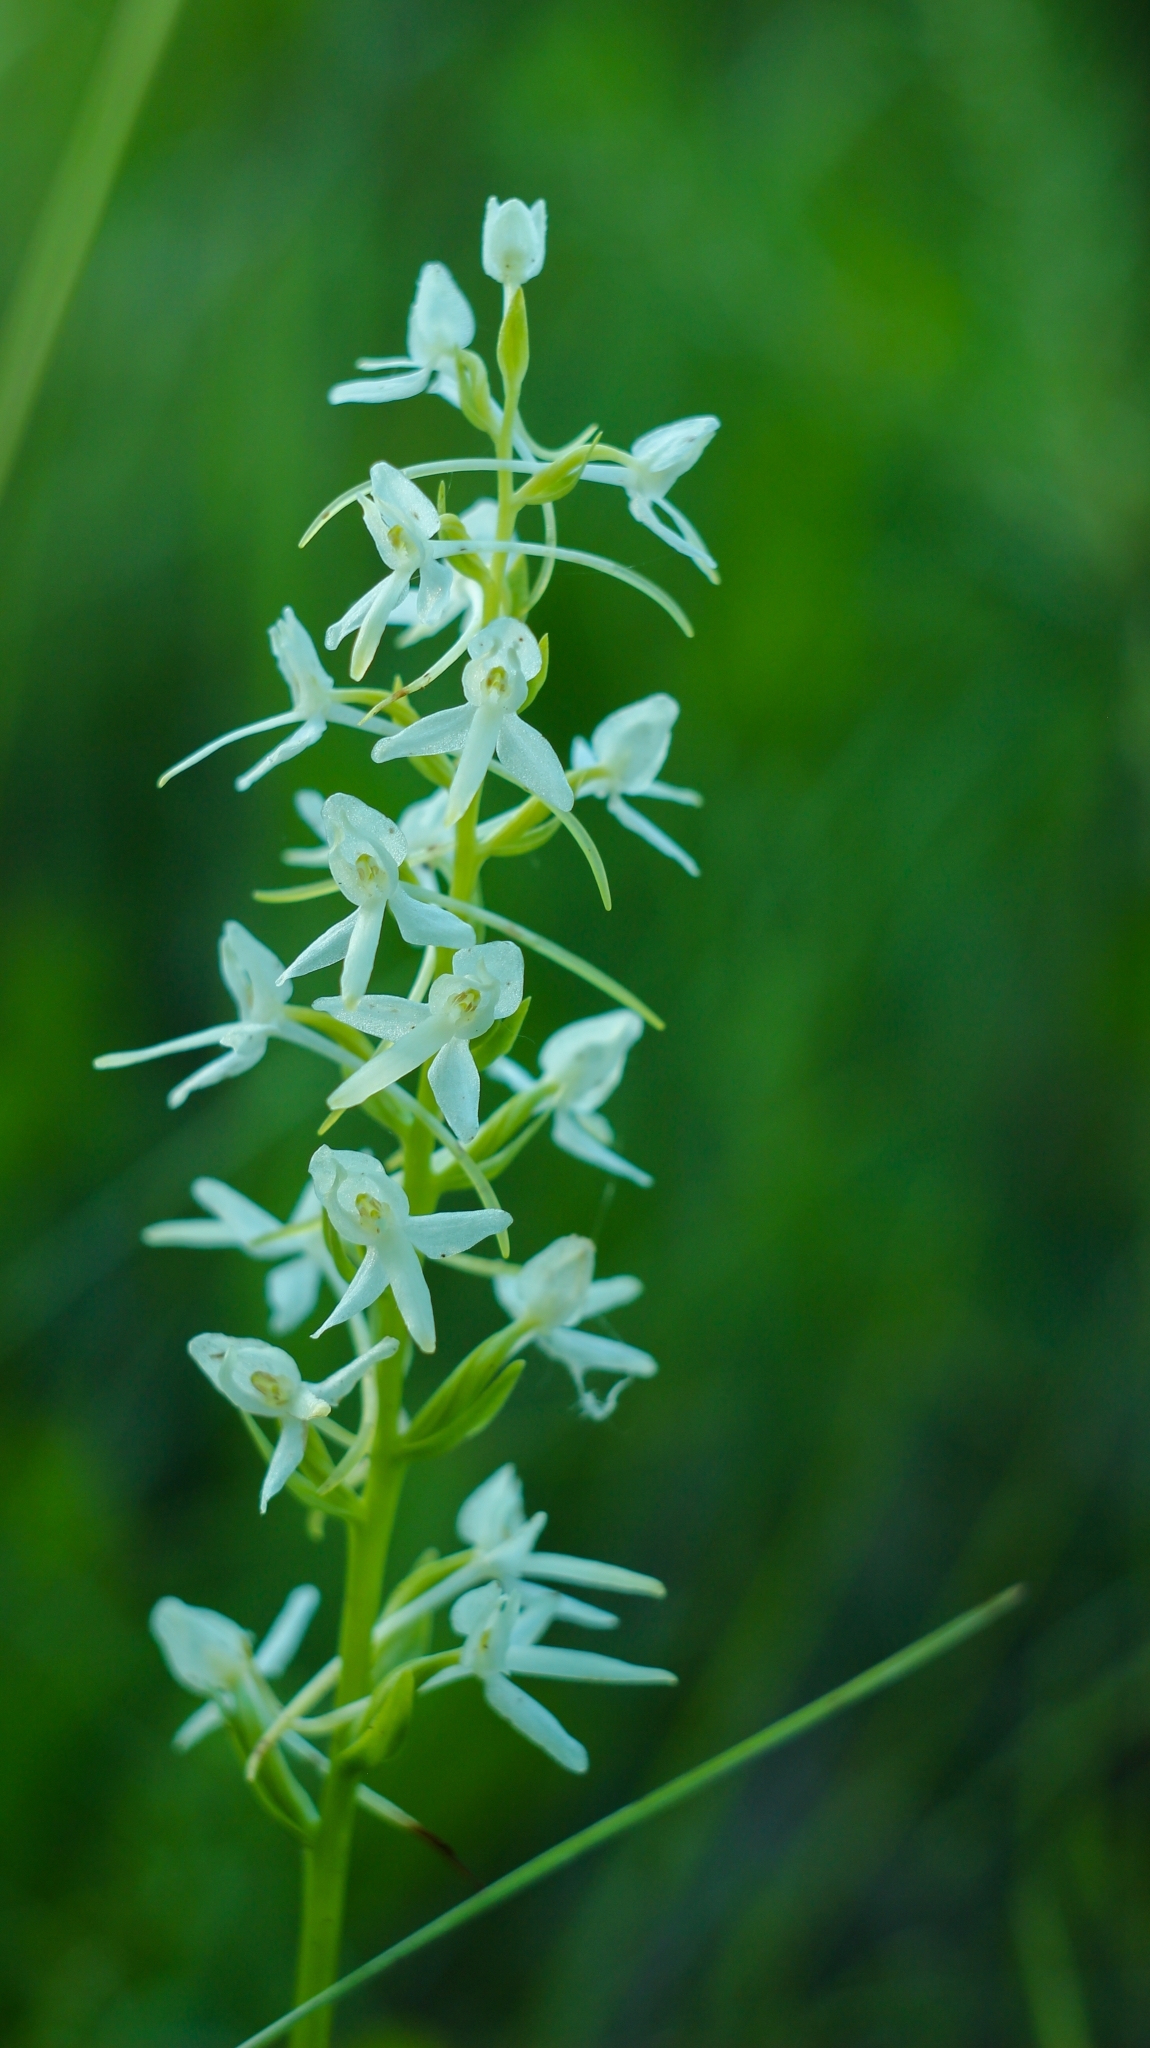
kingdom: Plantae
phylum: Tracheophyta
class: Liliopsida
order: Asparagales
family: Orchidaceae
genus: Platanthera
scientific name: Platanthera bifolia
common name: Lesser butterfly-orchid
